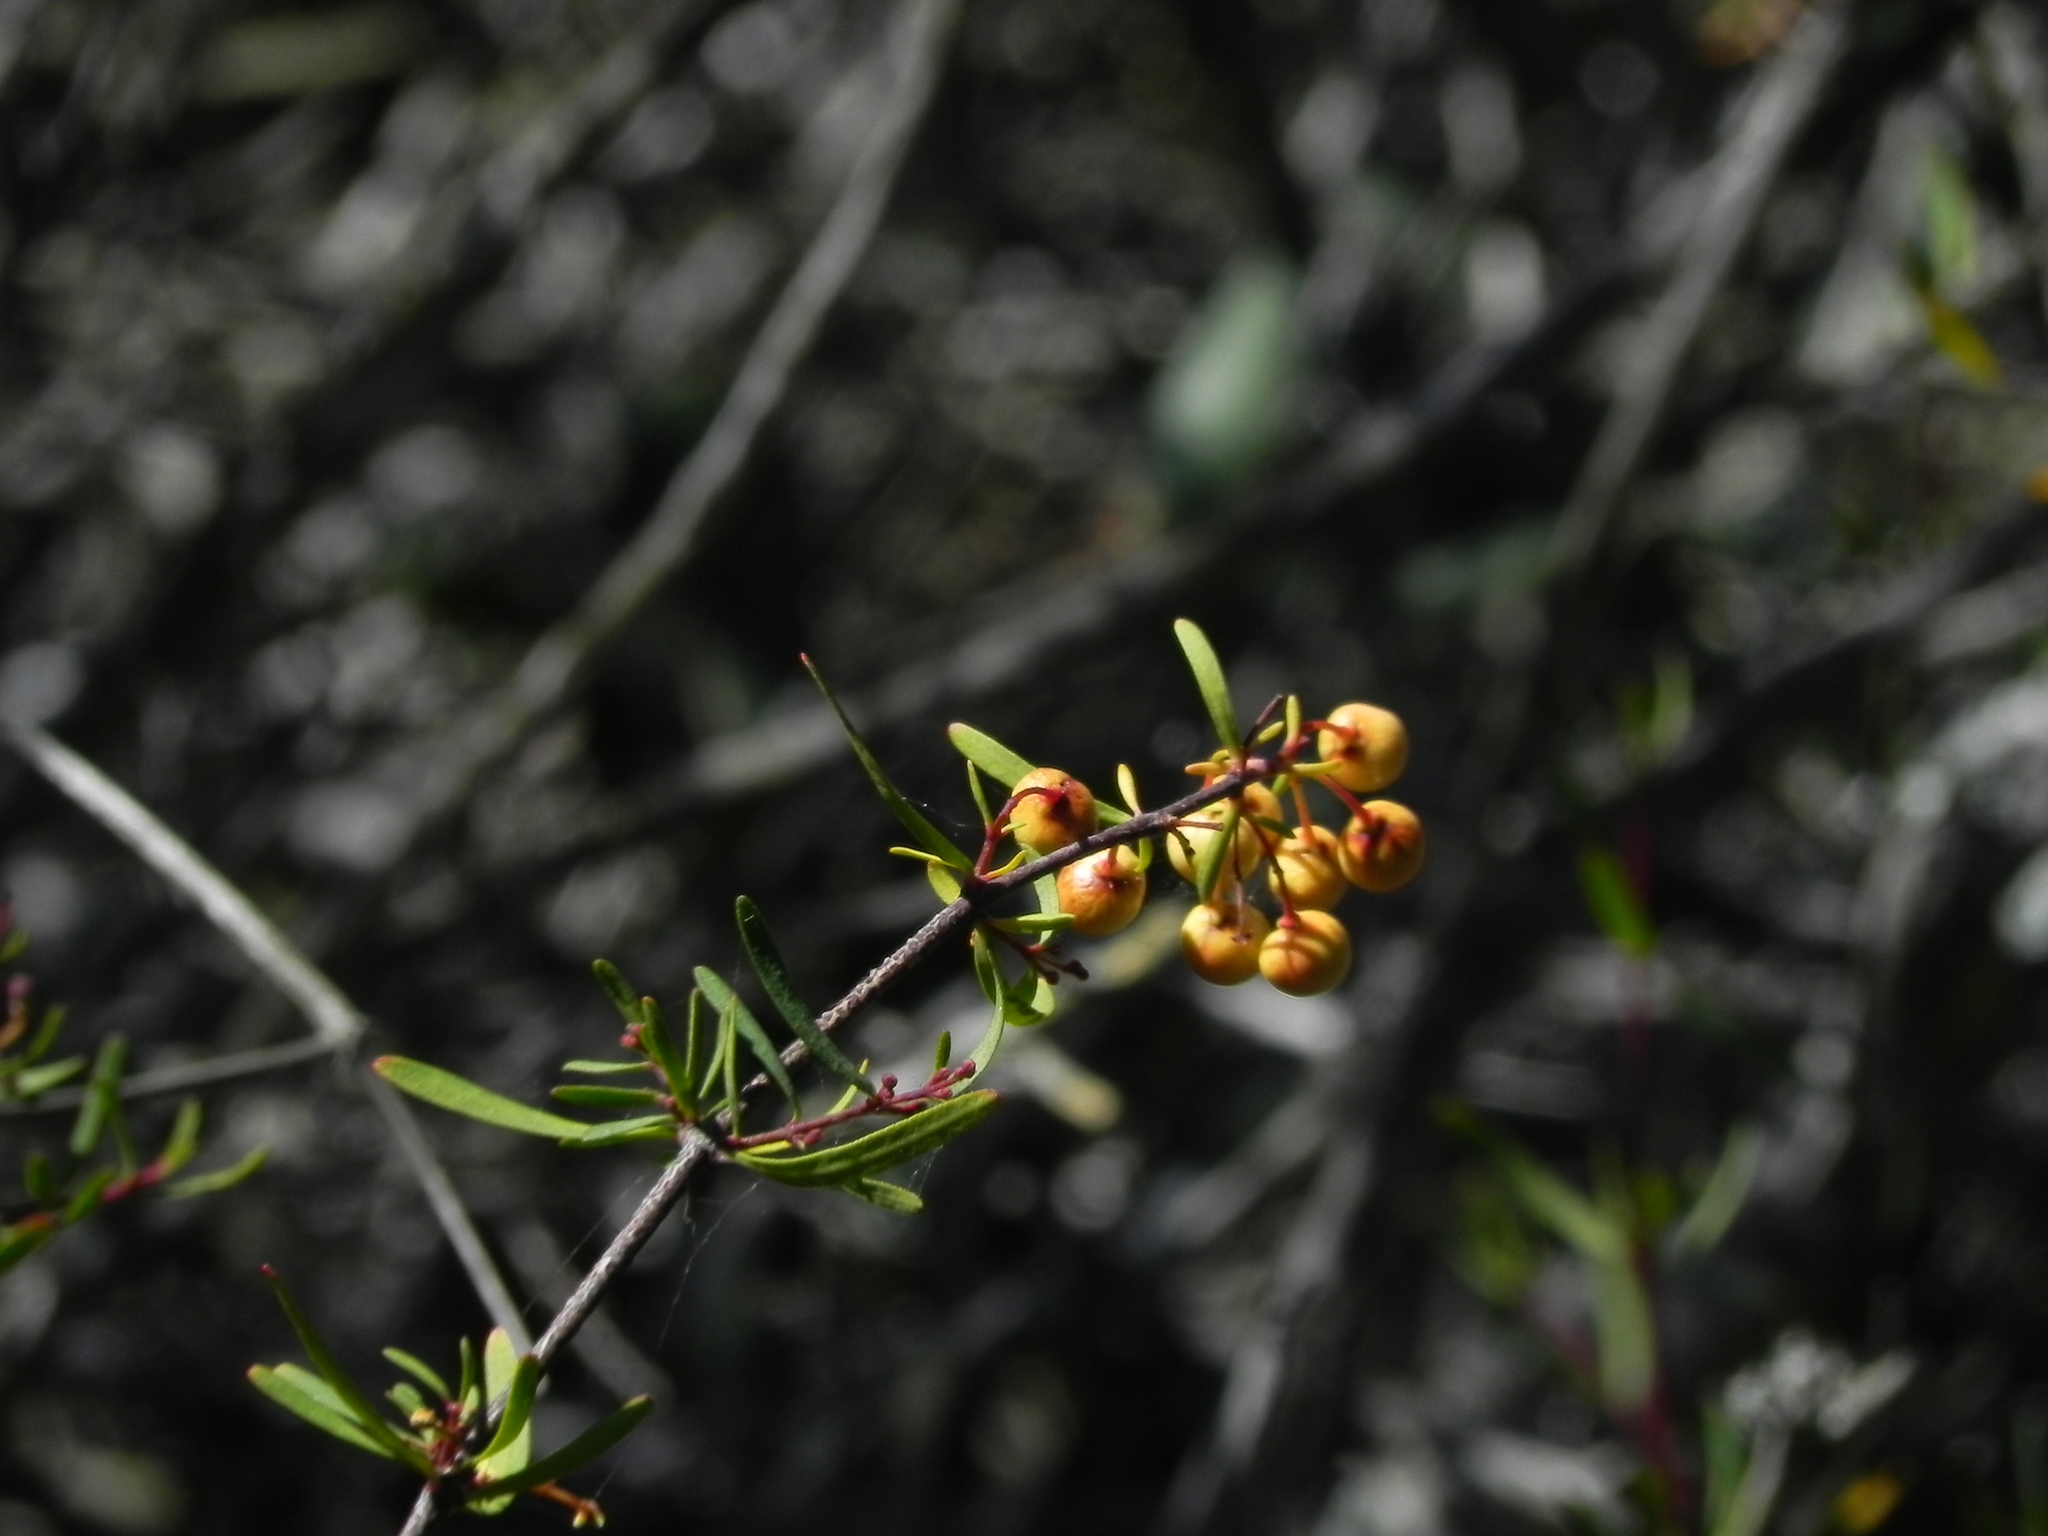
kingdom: Plantae
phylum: Tracheophyta
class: Magnoliopsida
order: Sapindales
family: Rutaceae
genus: Cneoridium
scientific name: Cneoridium dumosum
